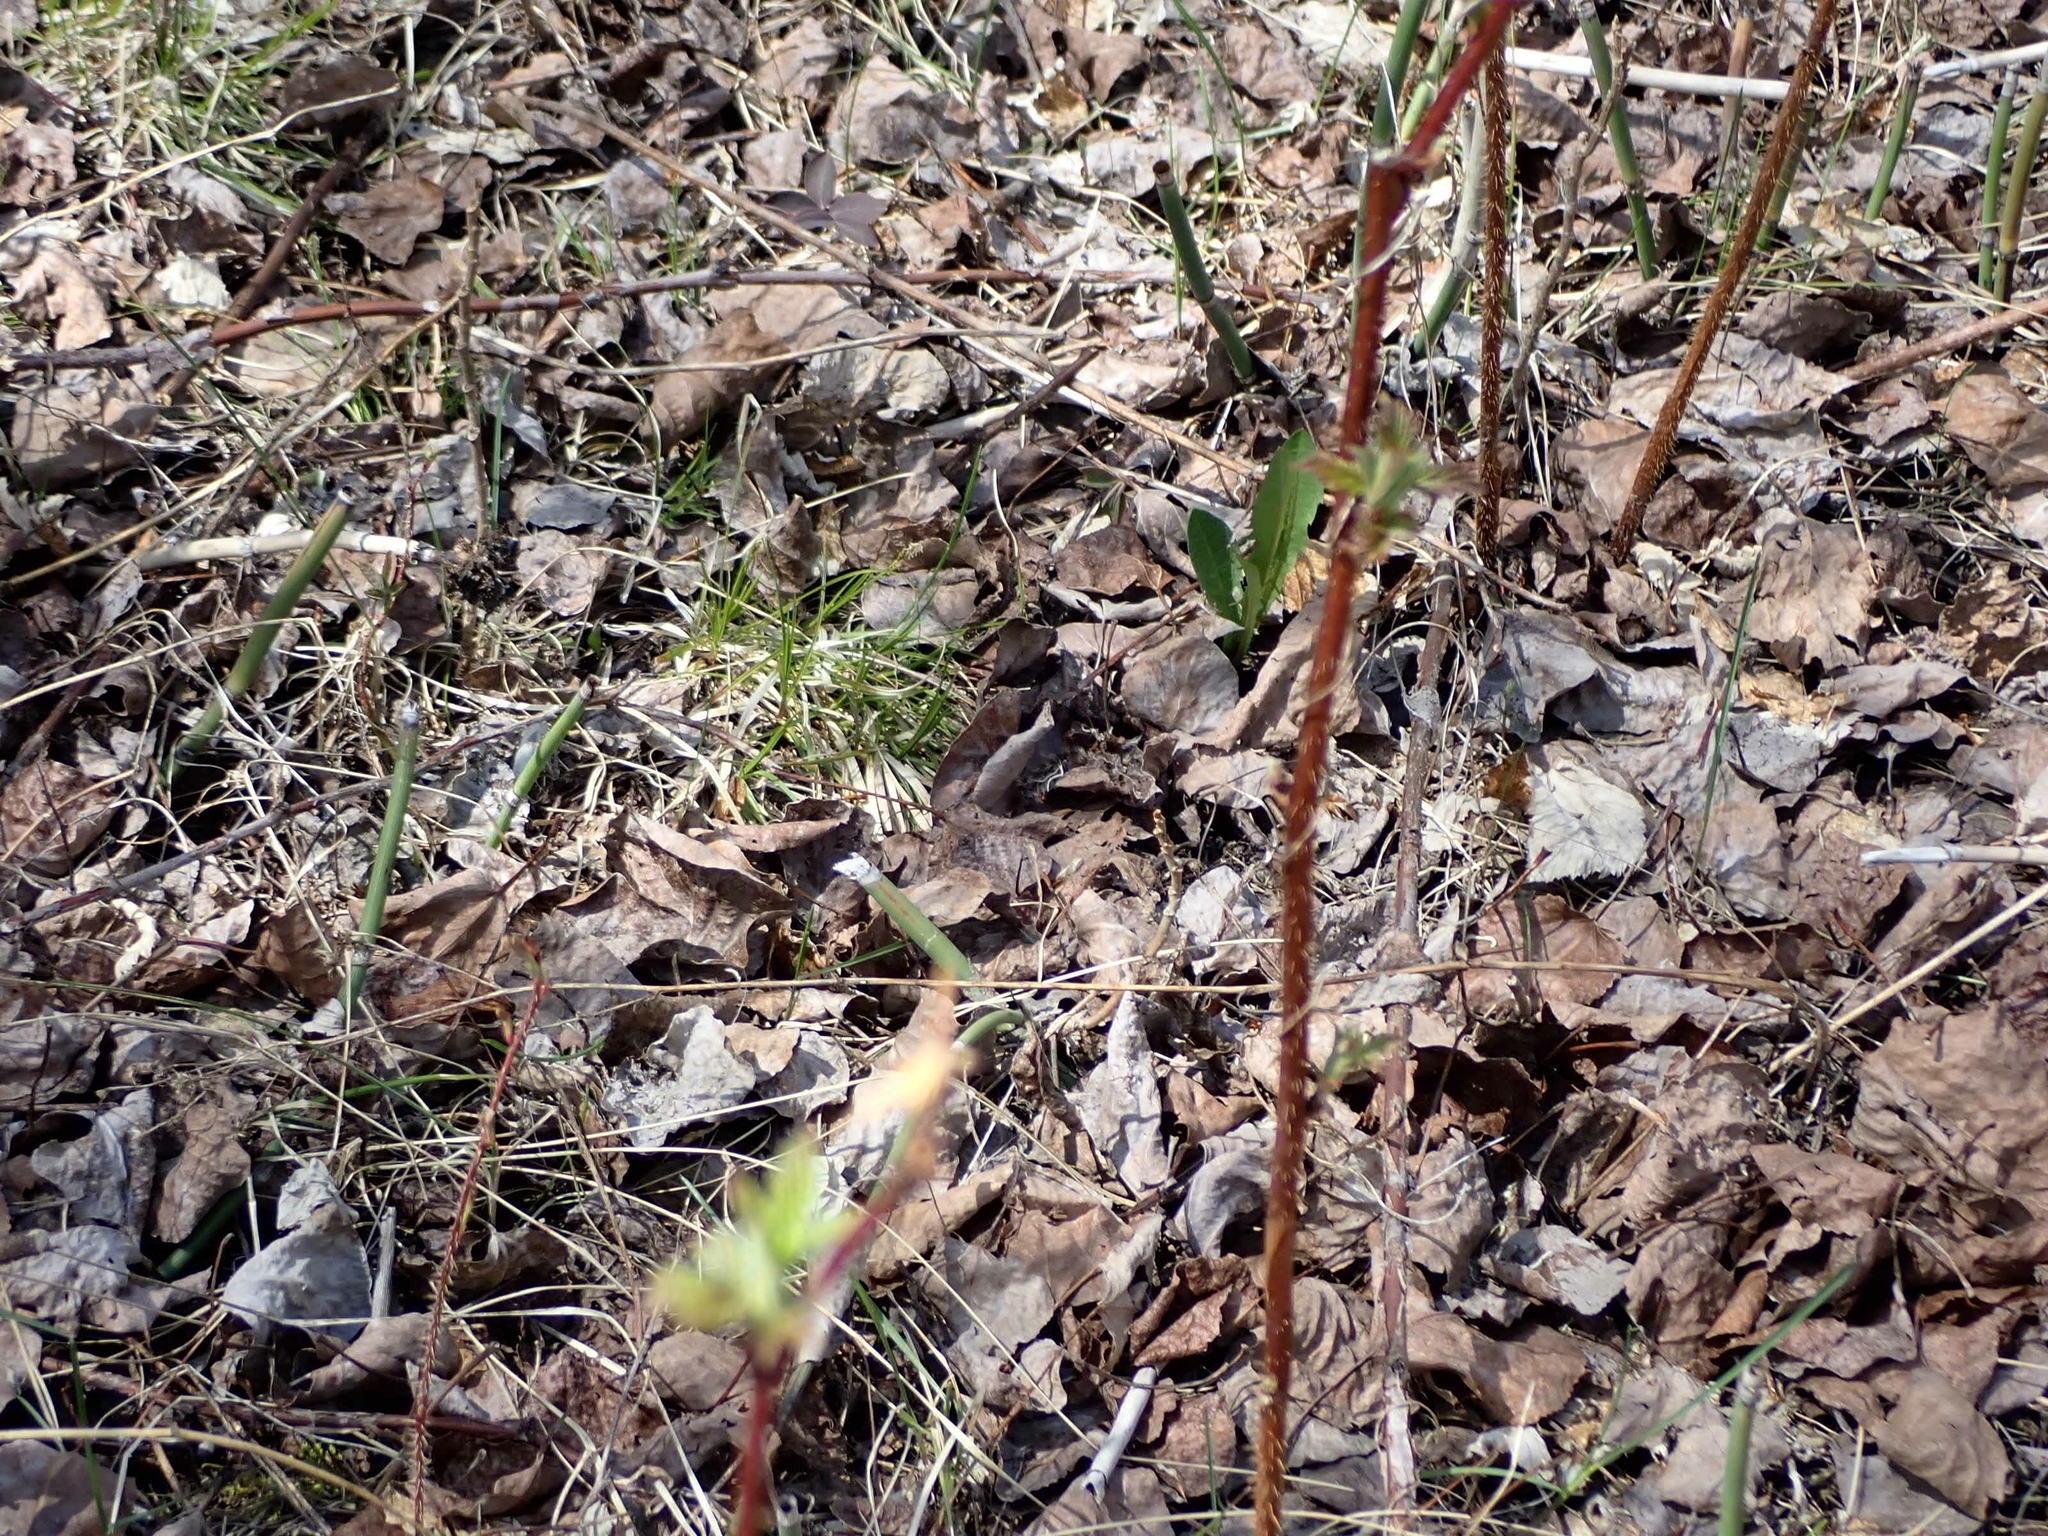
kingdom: Plantae
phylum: Tracheophyta
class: Magnoliopsida
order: Rosales
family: Rosaceae
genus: Rubus
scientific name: Rubus idaeus
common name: Raspberry
